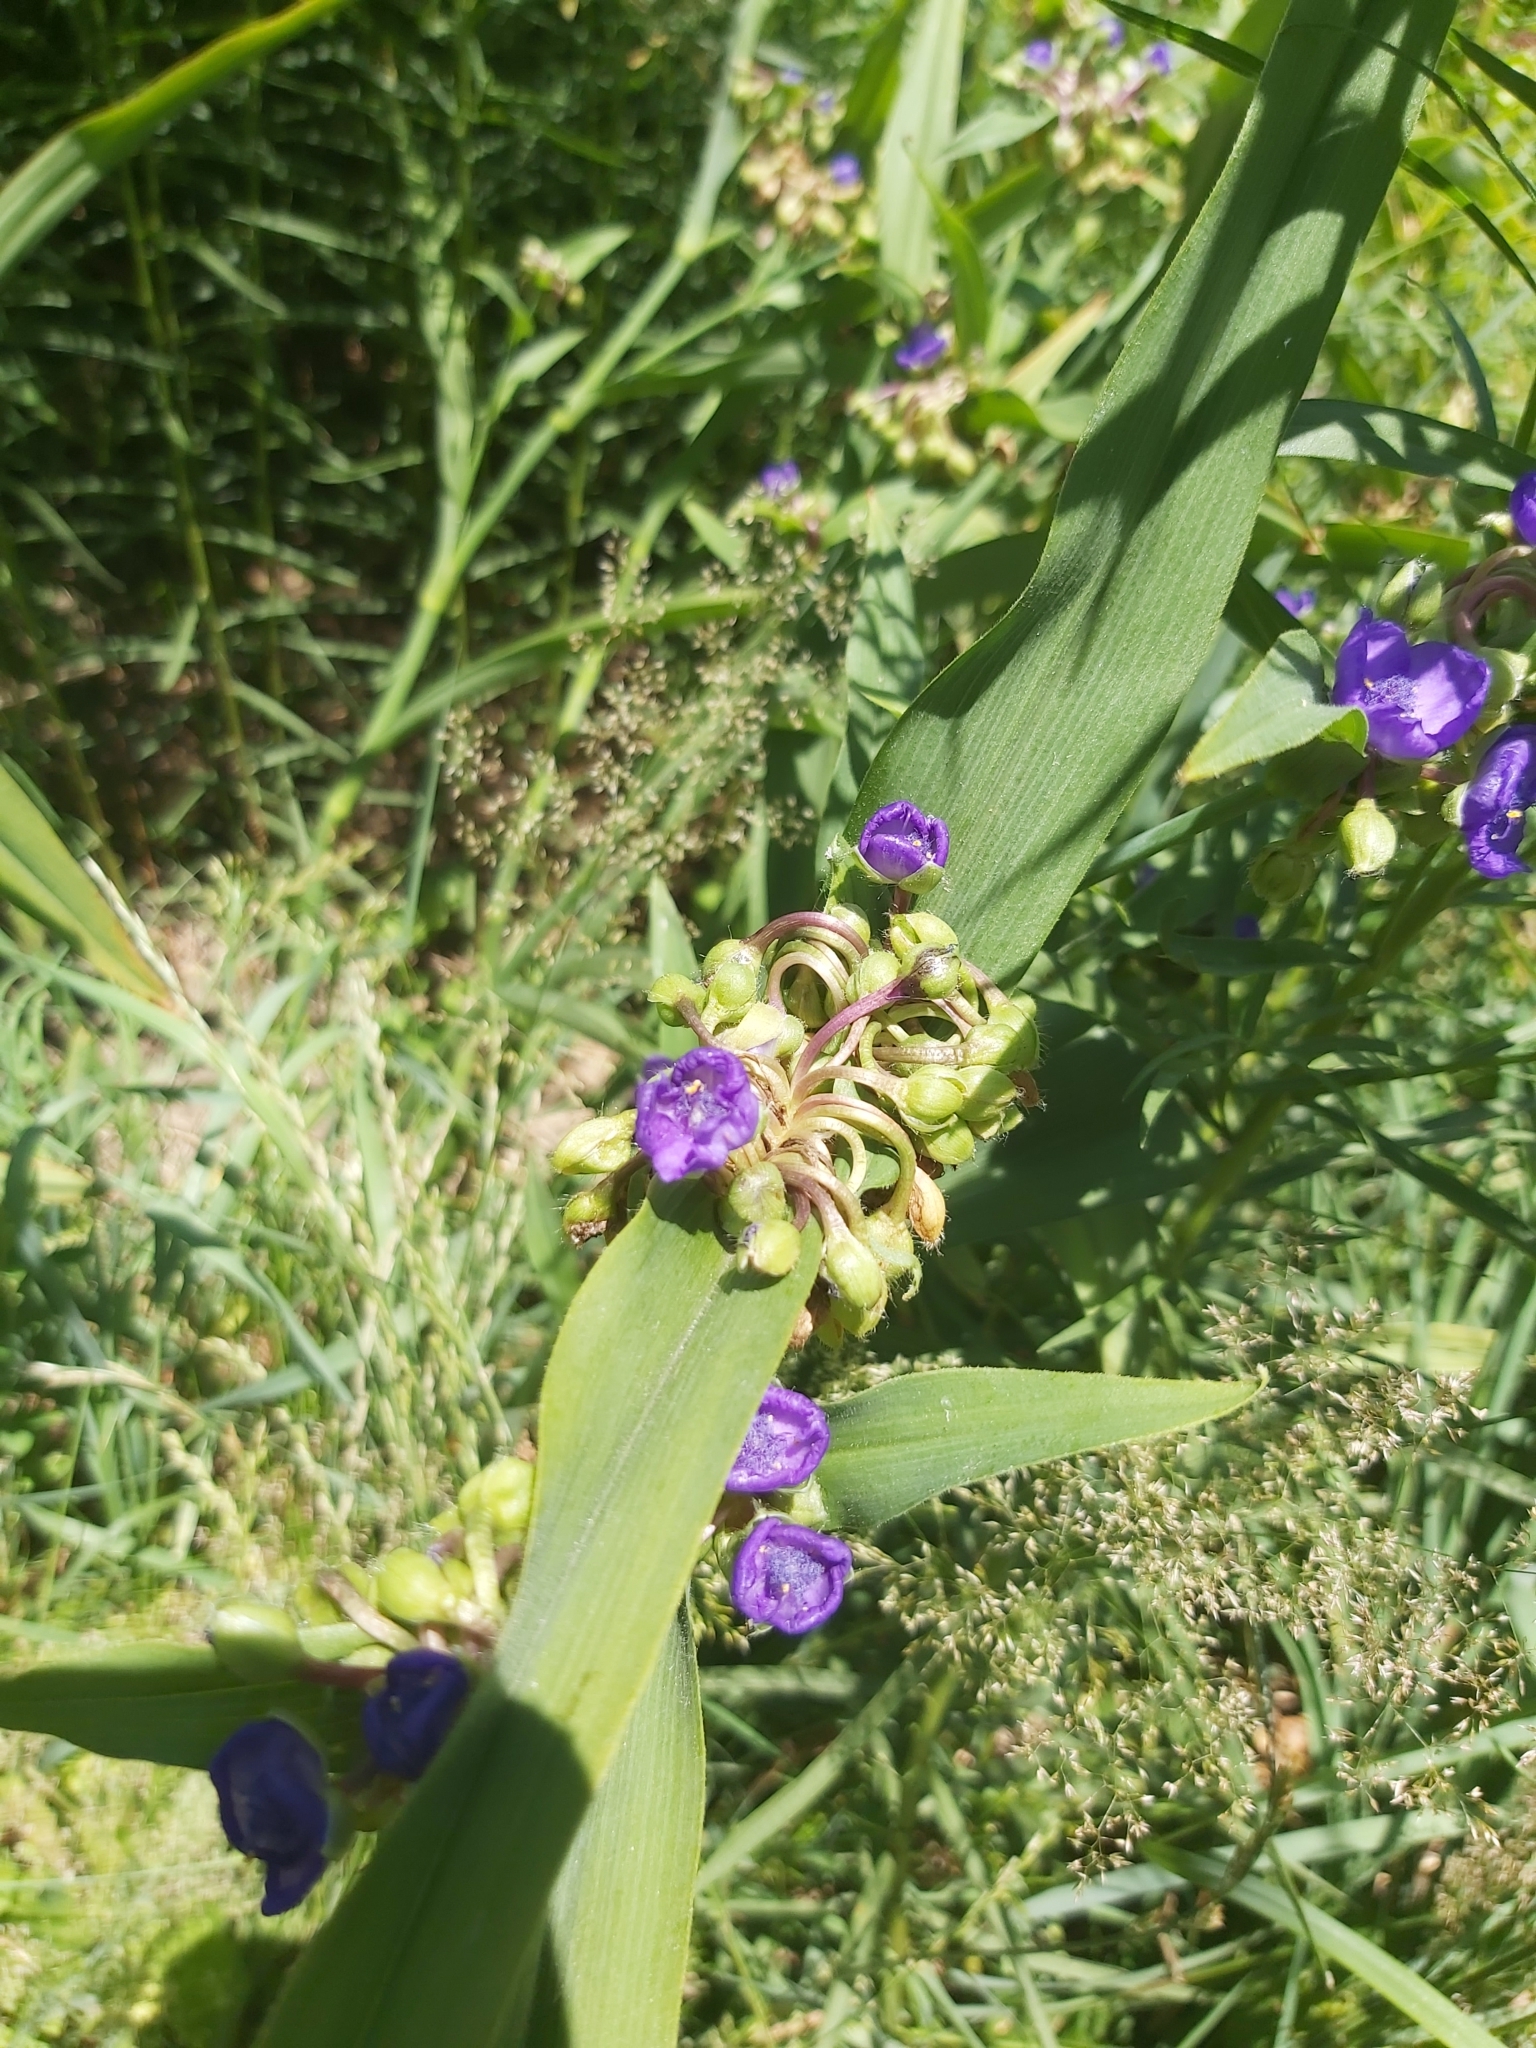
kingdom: Plantae
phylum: Tracheophyta
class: Liliopsida
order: Commelinales
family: Commelinaceae
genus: Tradescantia
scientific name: Tradescantia virginiana
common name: Spiderwort
